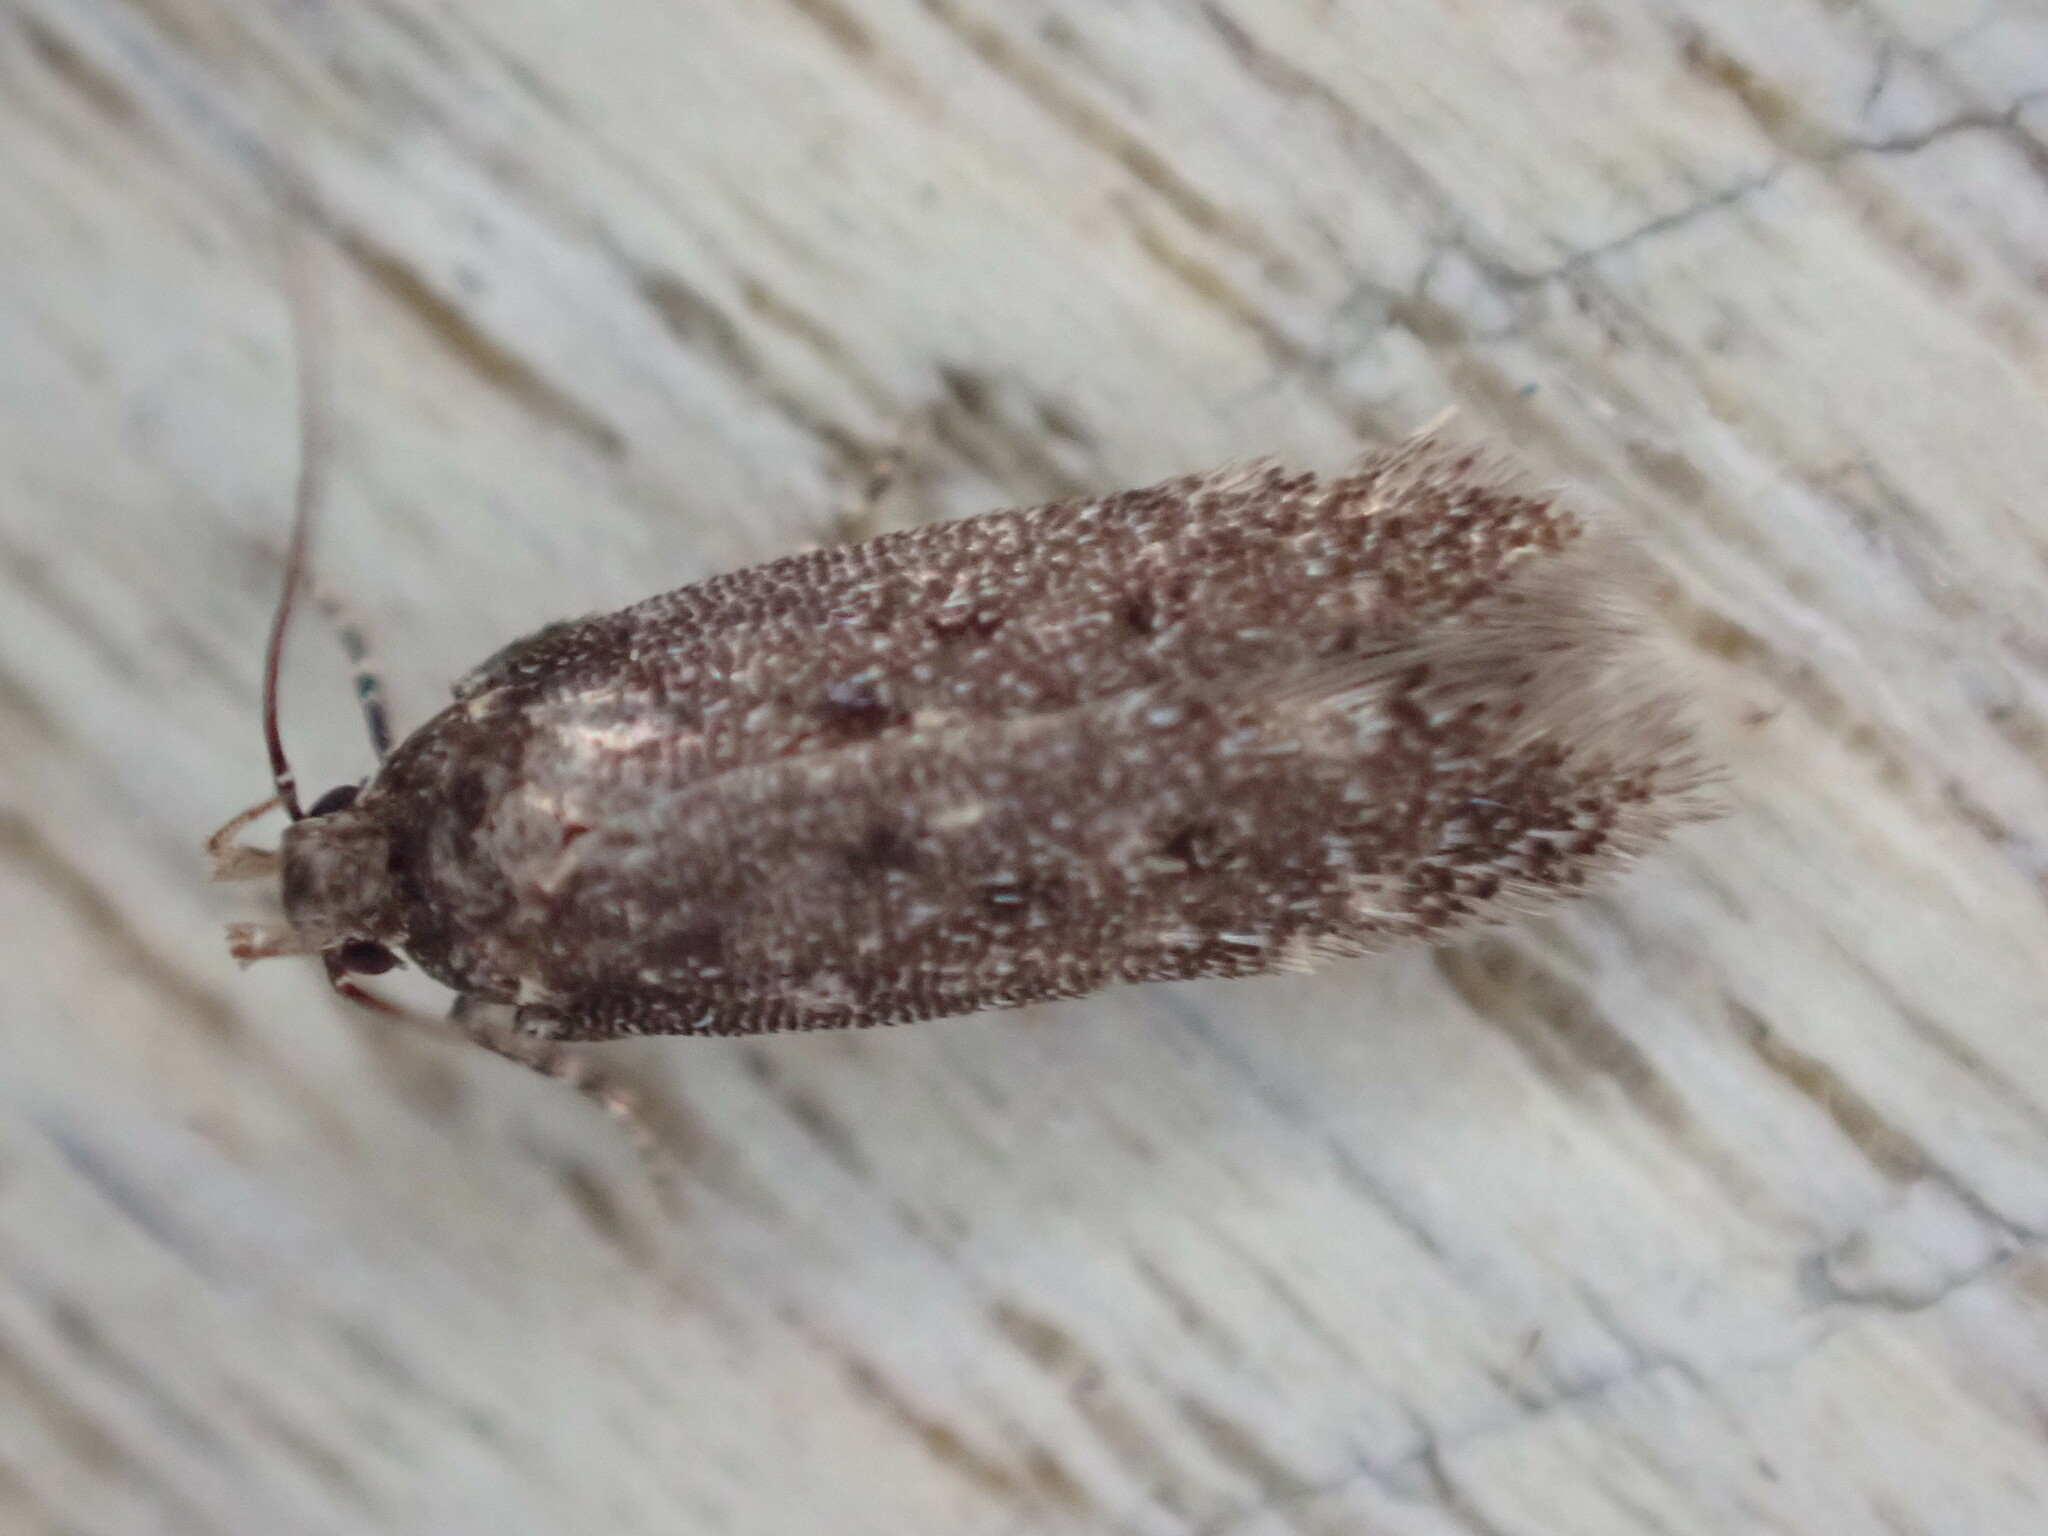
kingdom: Animalia
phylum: Arthropoda
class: Insecta
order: Lepidoptera
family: Gelechiidae
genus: Bryotropha
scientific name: Bryotropha affinis
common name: Dark groundling
